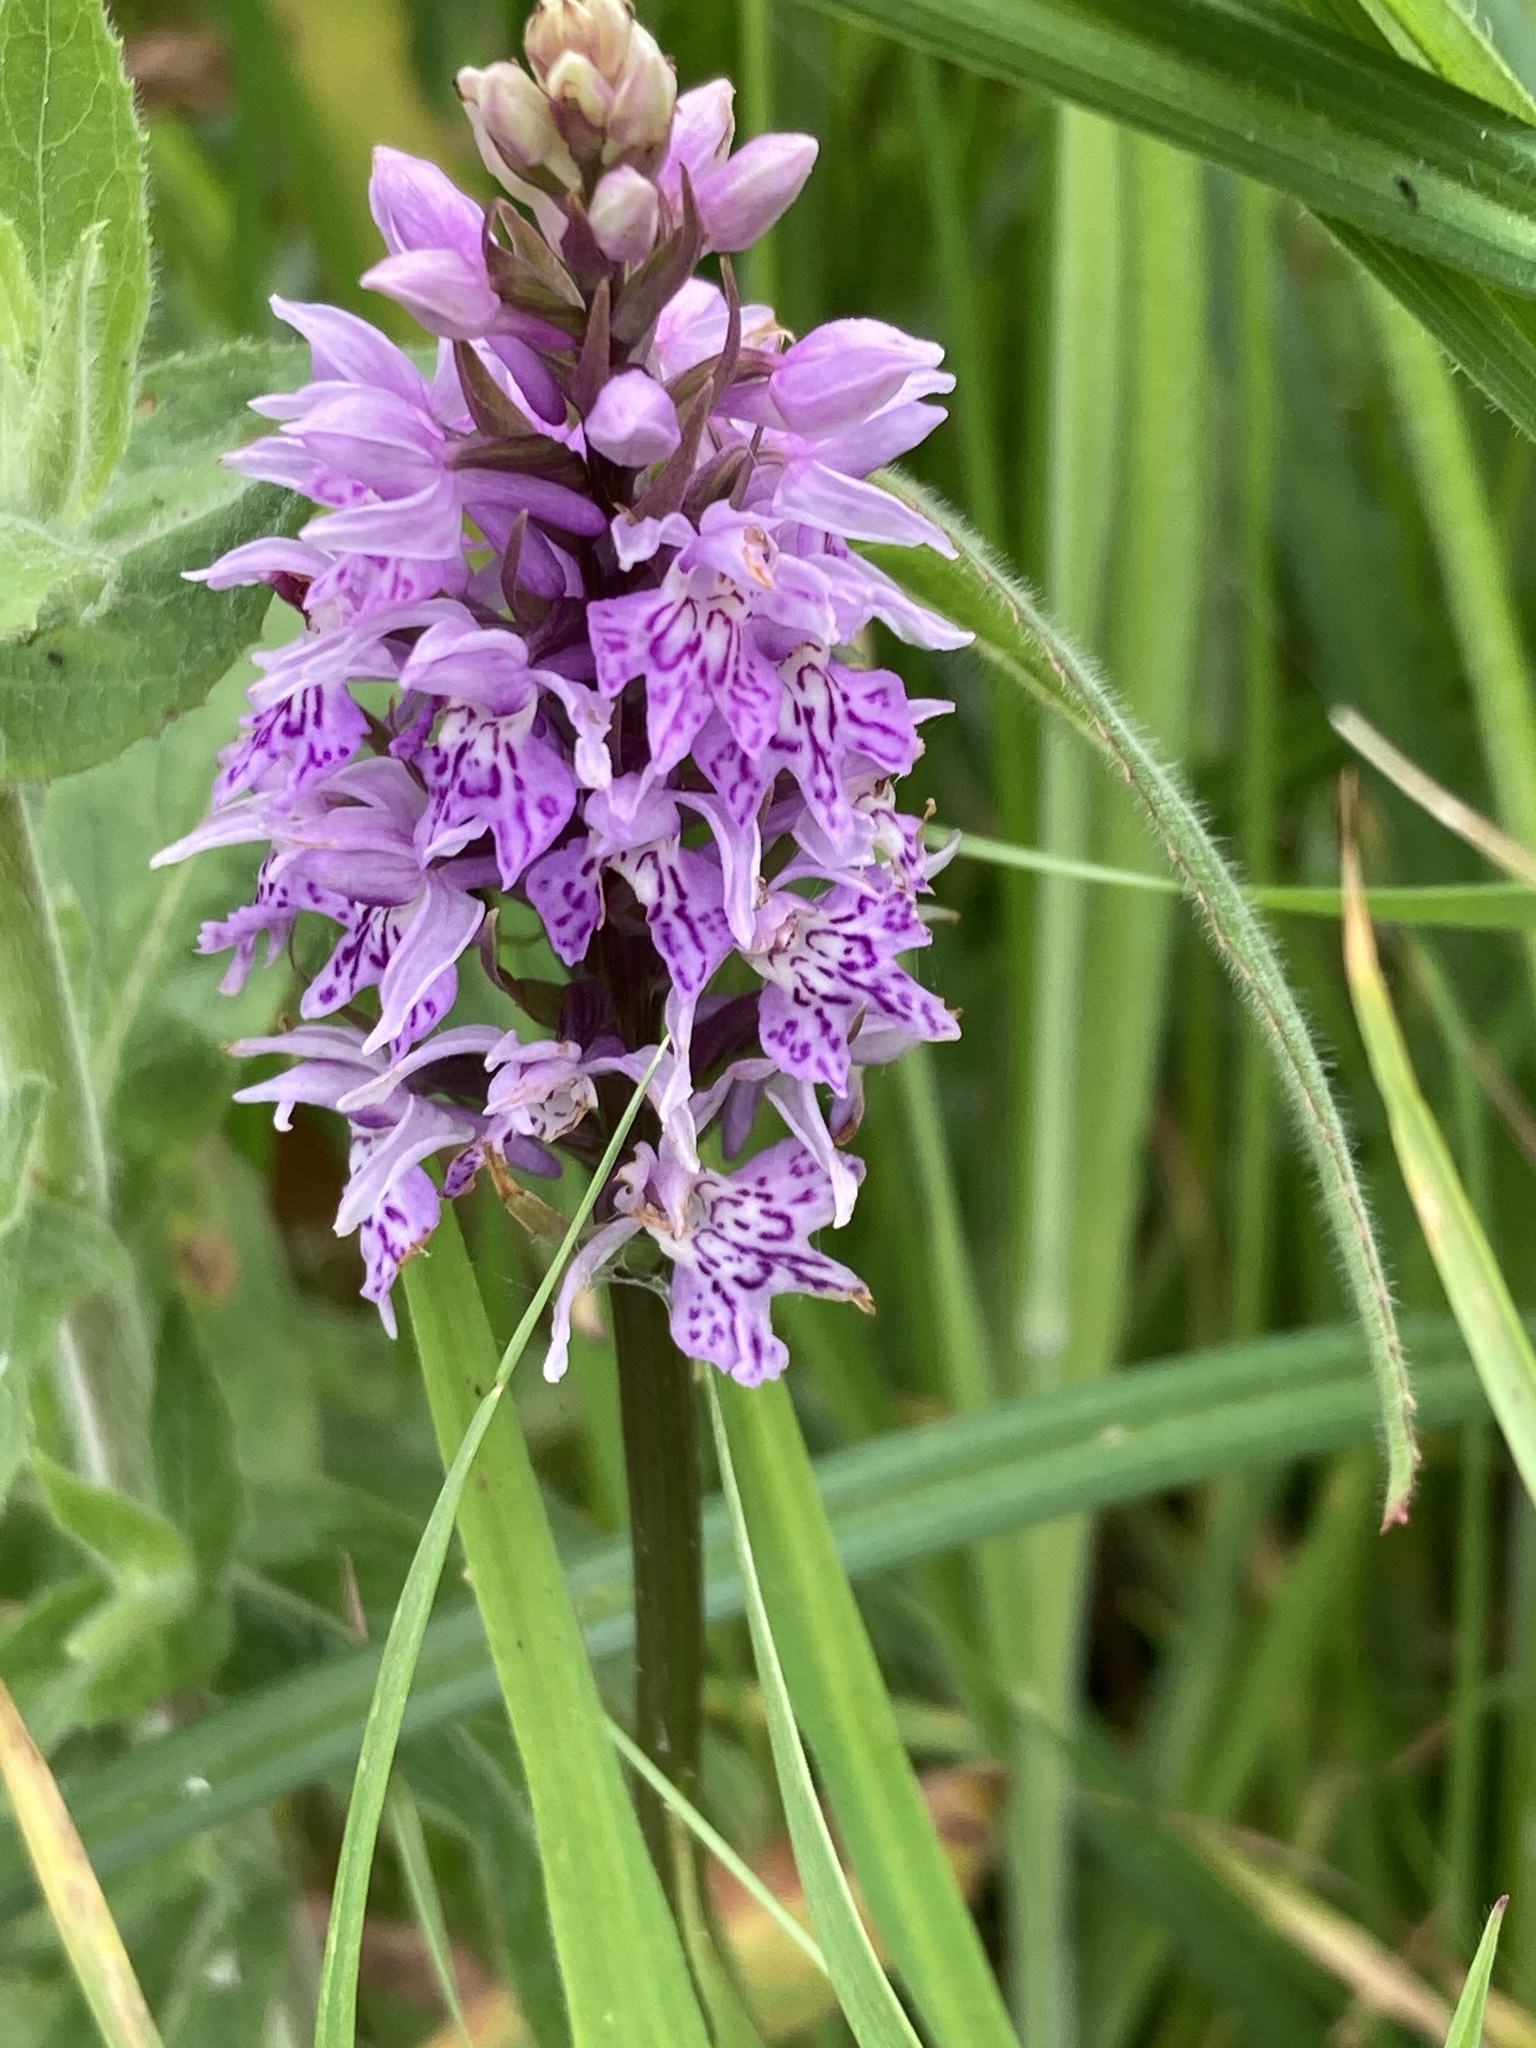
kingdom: Plantae
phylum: Tracheophyta
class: Liliopsida
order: Asparagales
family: Orchidaceae
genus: Dactylorhiza
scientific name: Dactylorhiza maculata
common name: Heath spotted-orchid
